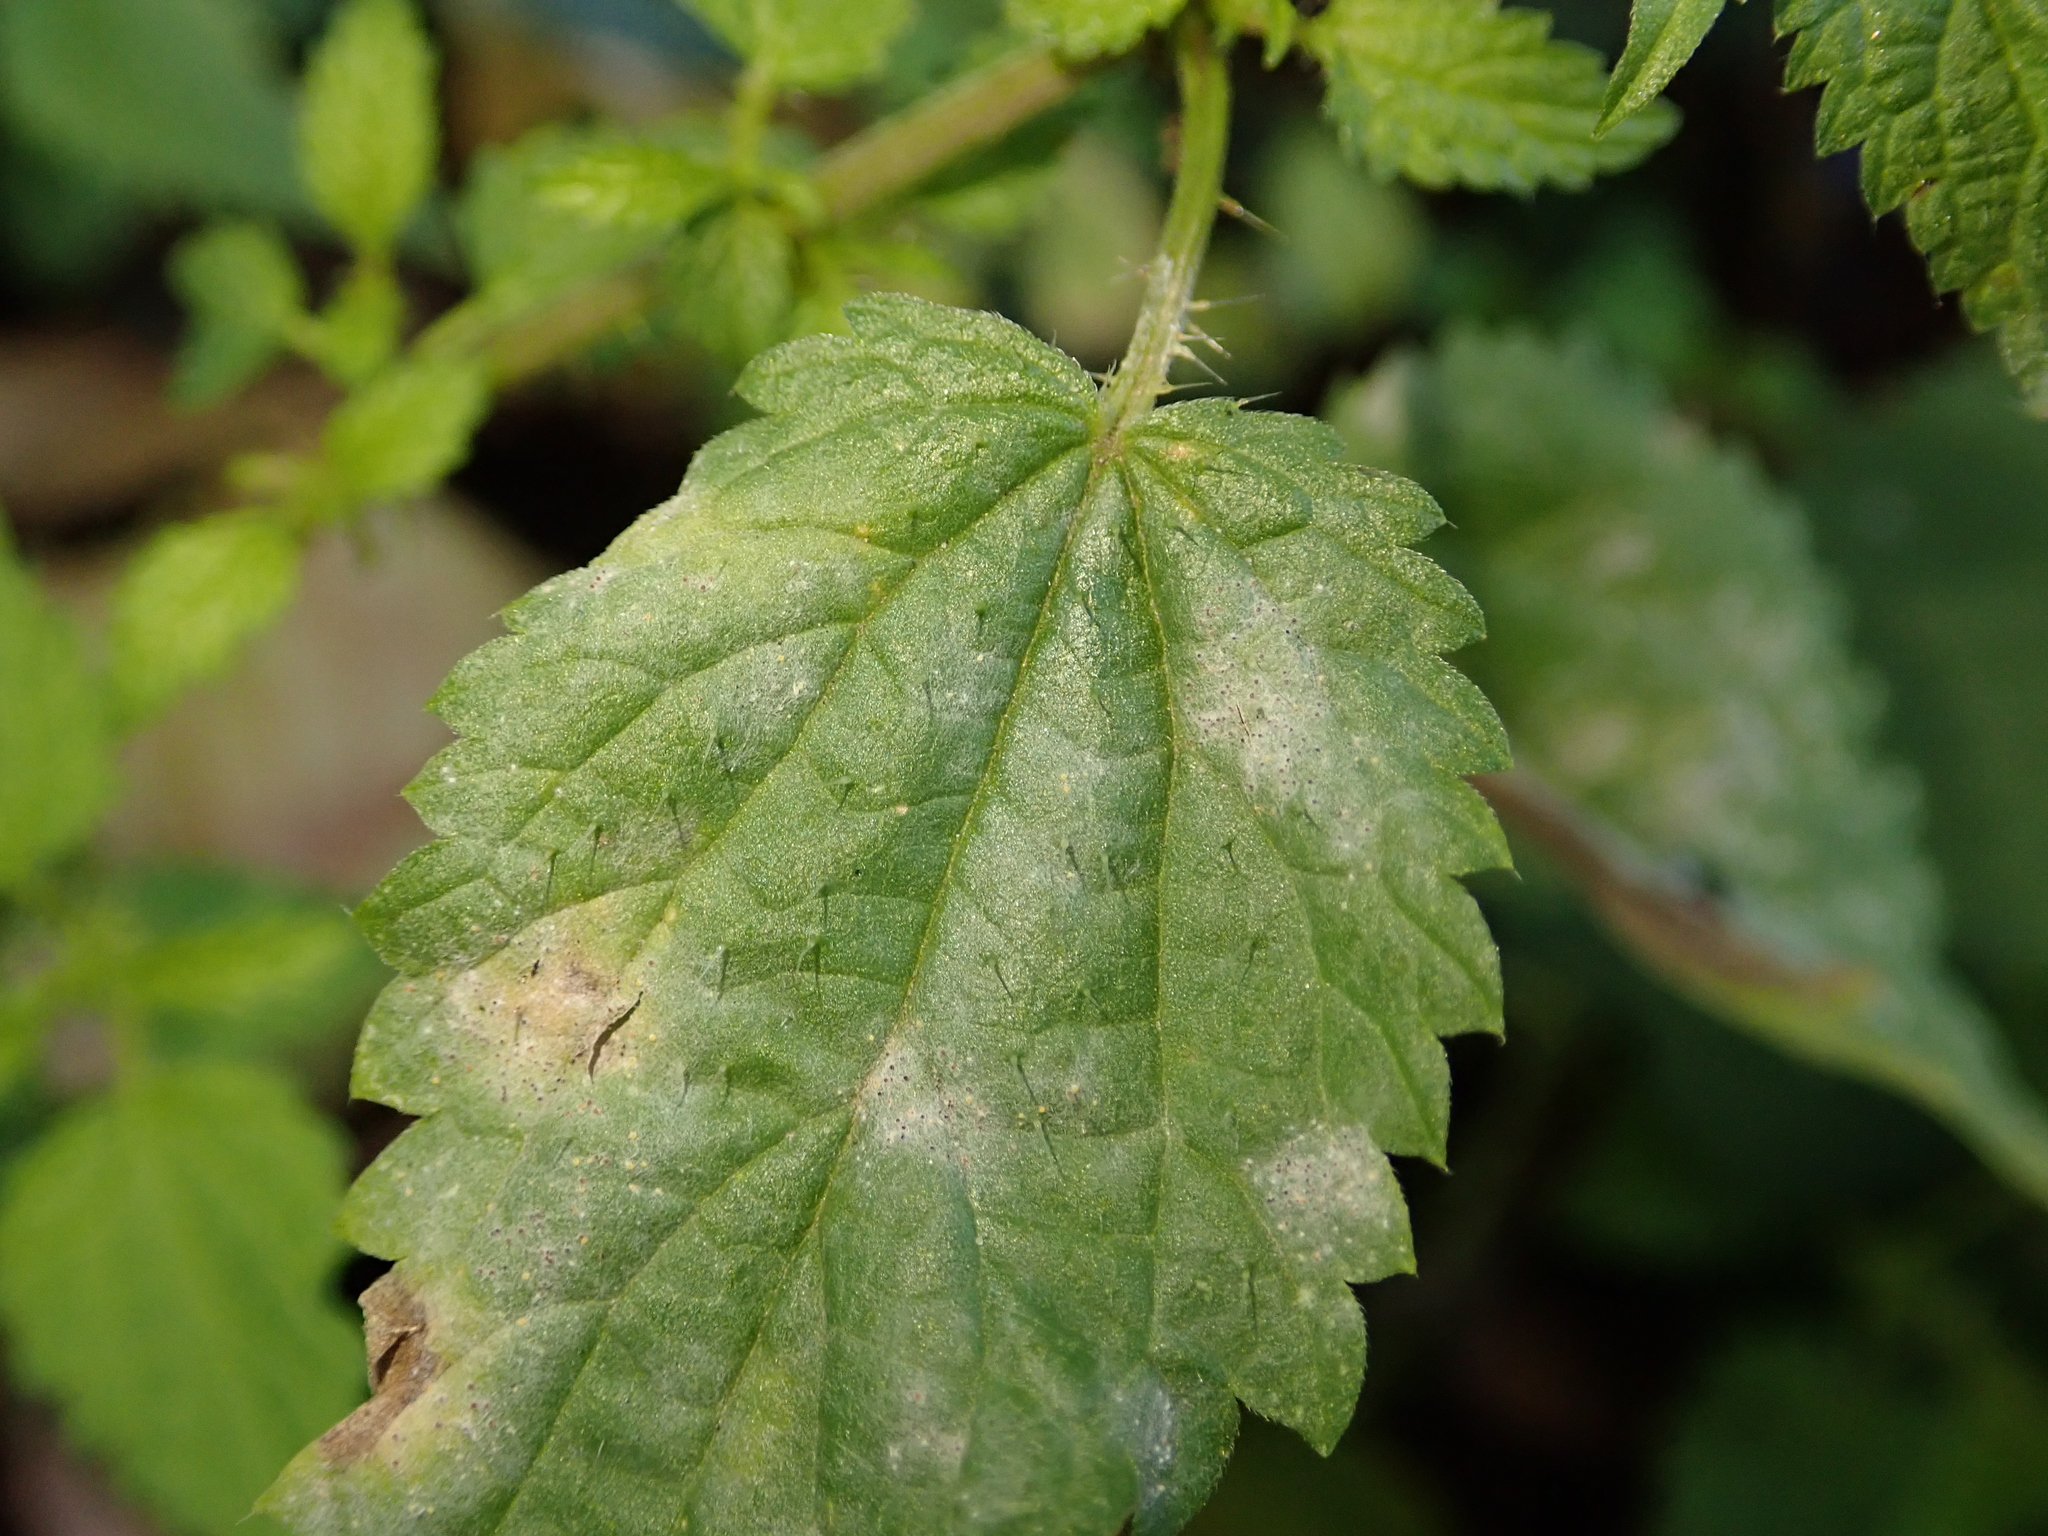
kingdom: Fungi
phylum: Ascomycota
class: Leotiomycetes
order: Helotiales
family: Erysiphaceae
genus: Erysiphe
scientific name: Erysiphe urticae
